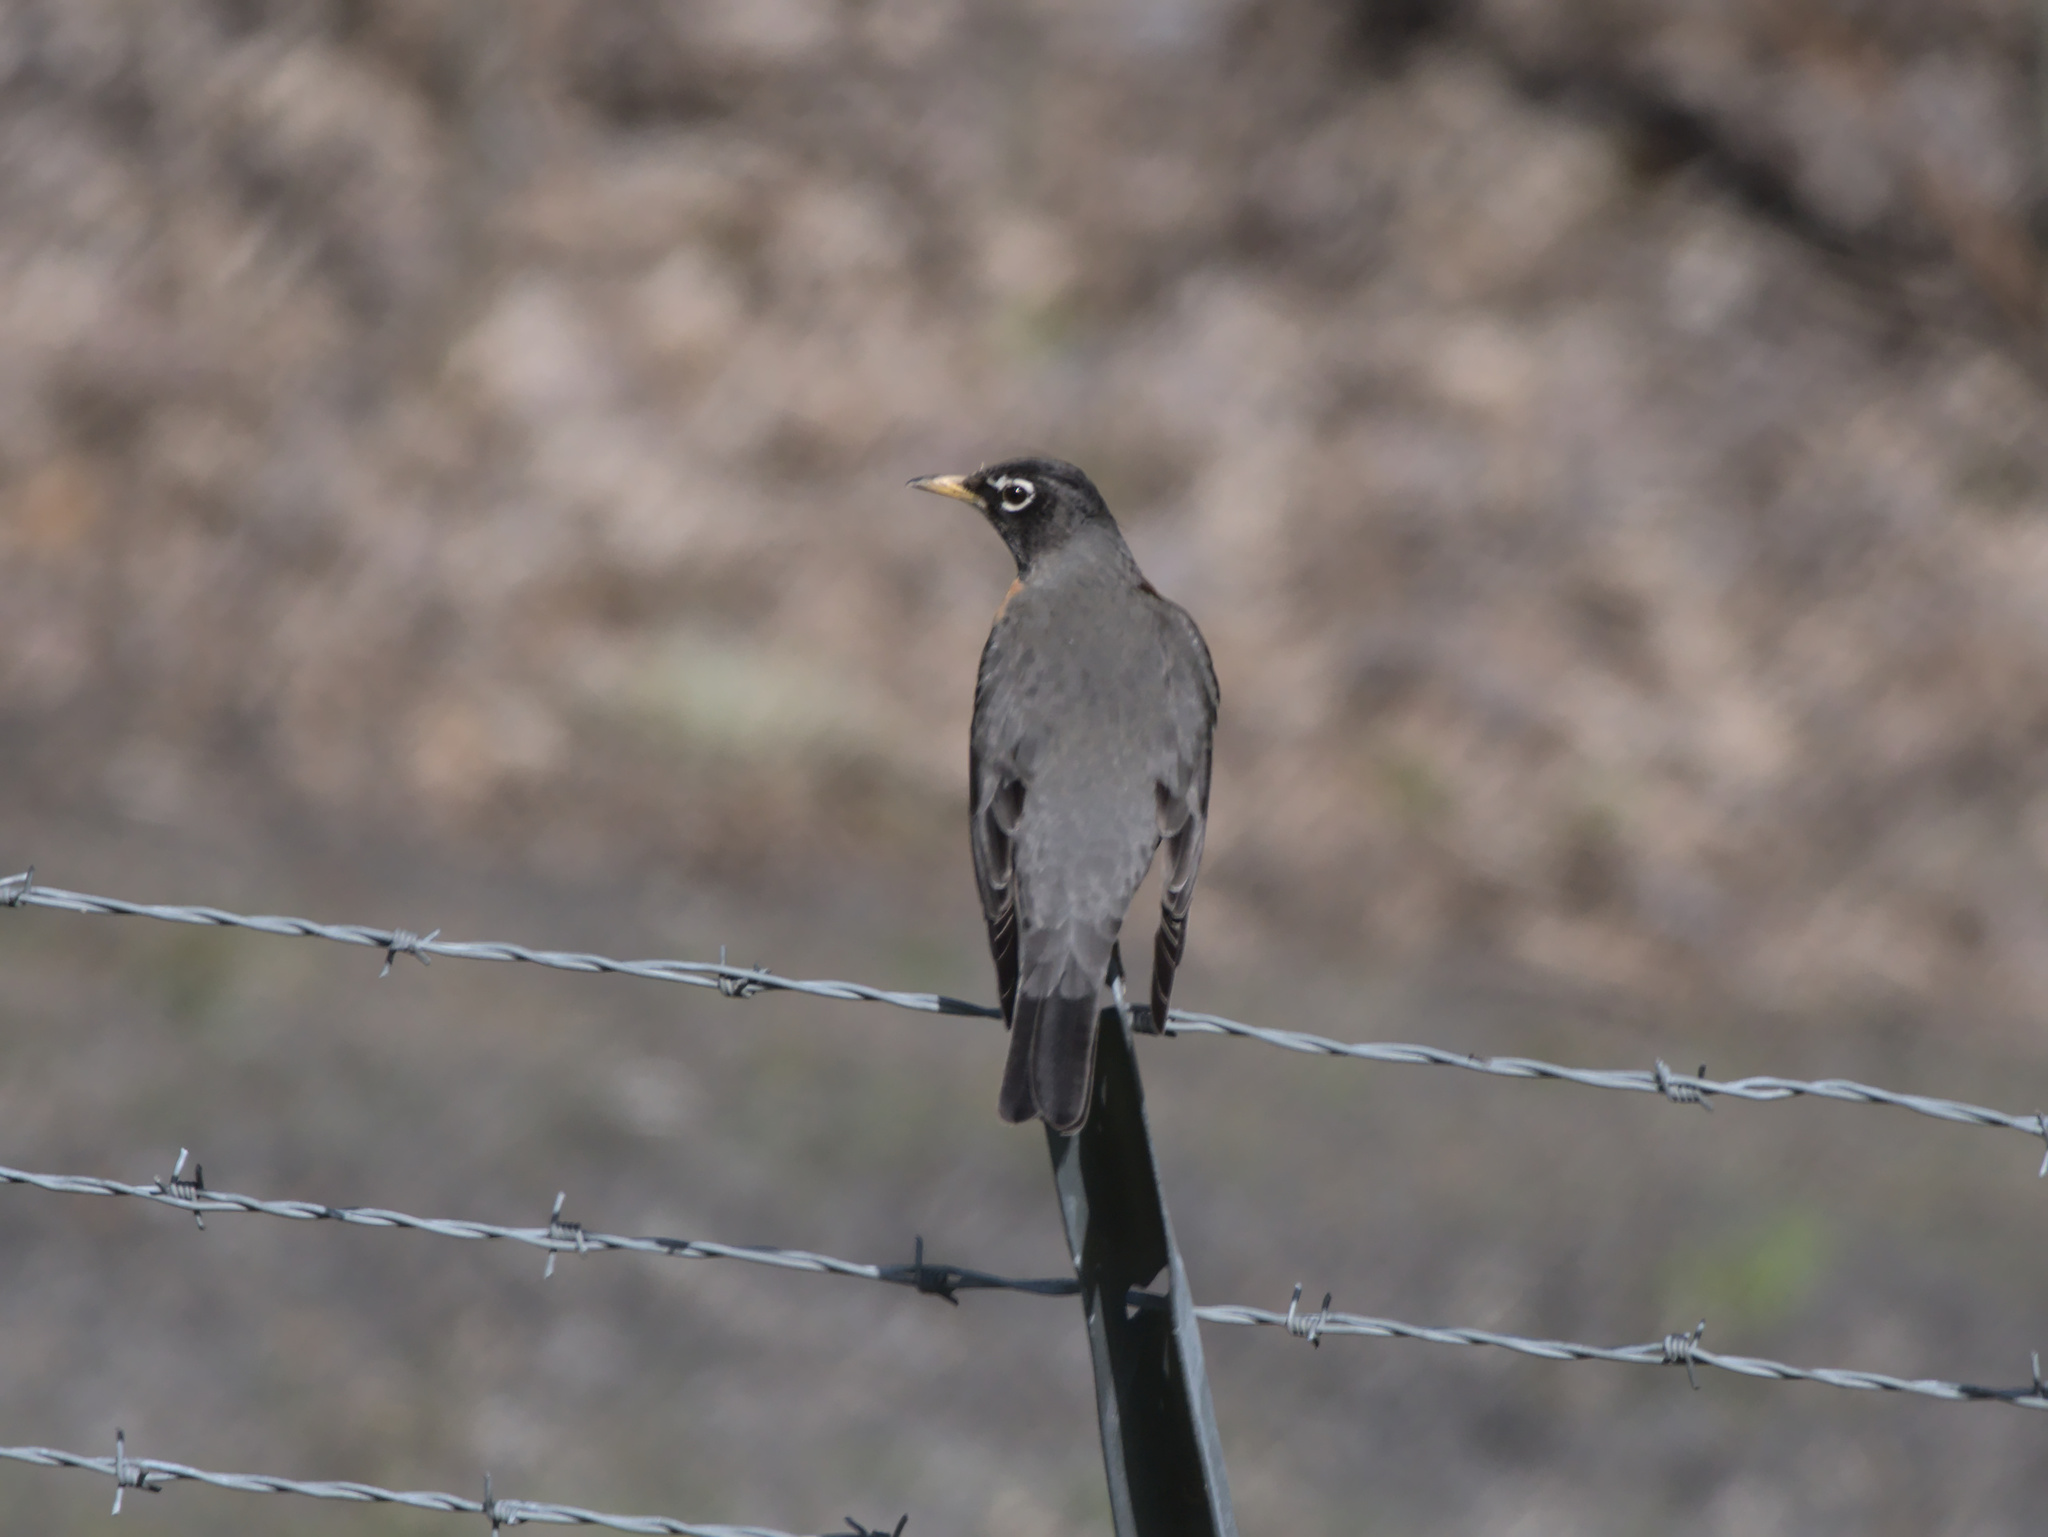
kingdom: Animalia
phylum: Chordata
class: Aves
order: Passeriformes
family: Turdidae
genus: Turdus
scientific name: Turdus migratorius
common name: American robin
